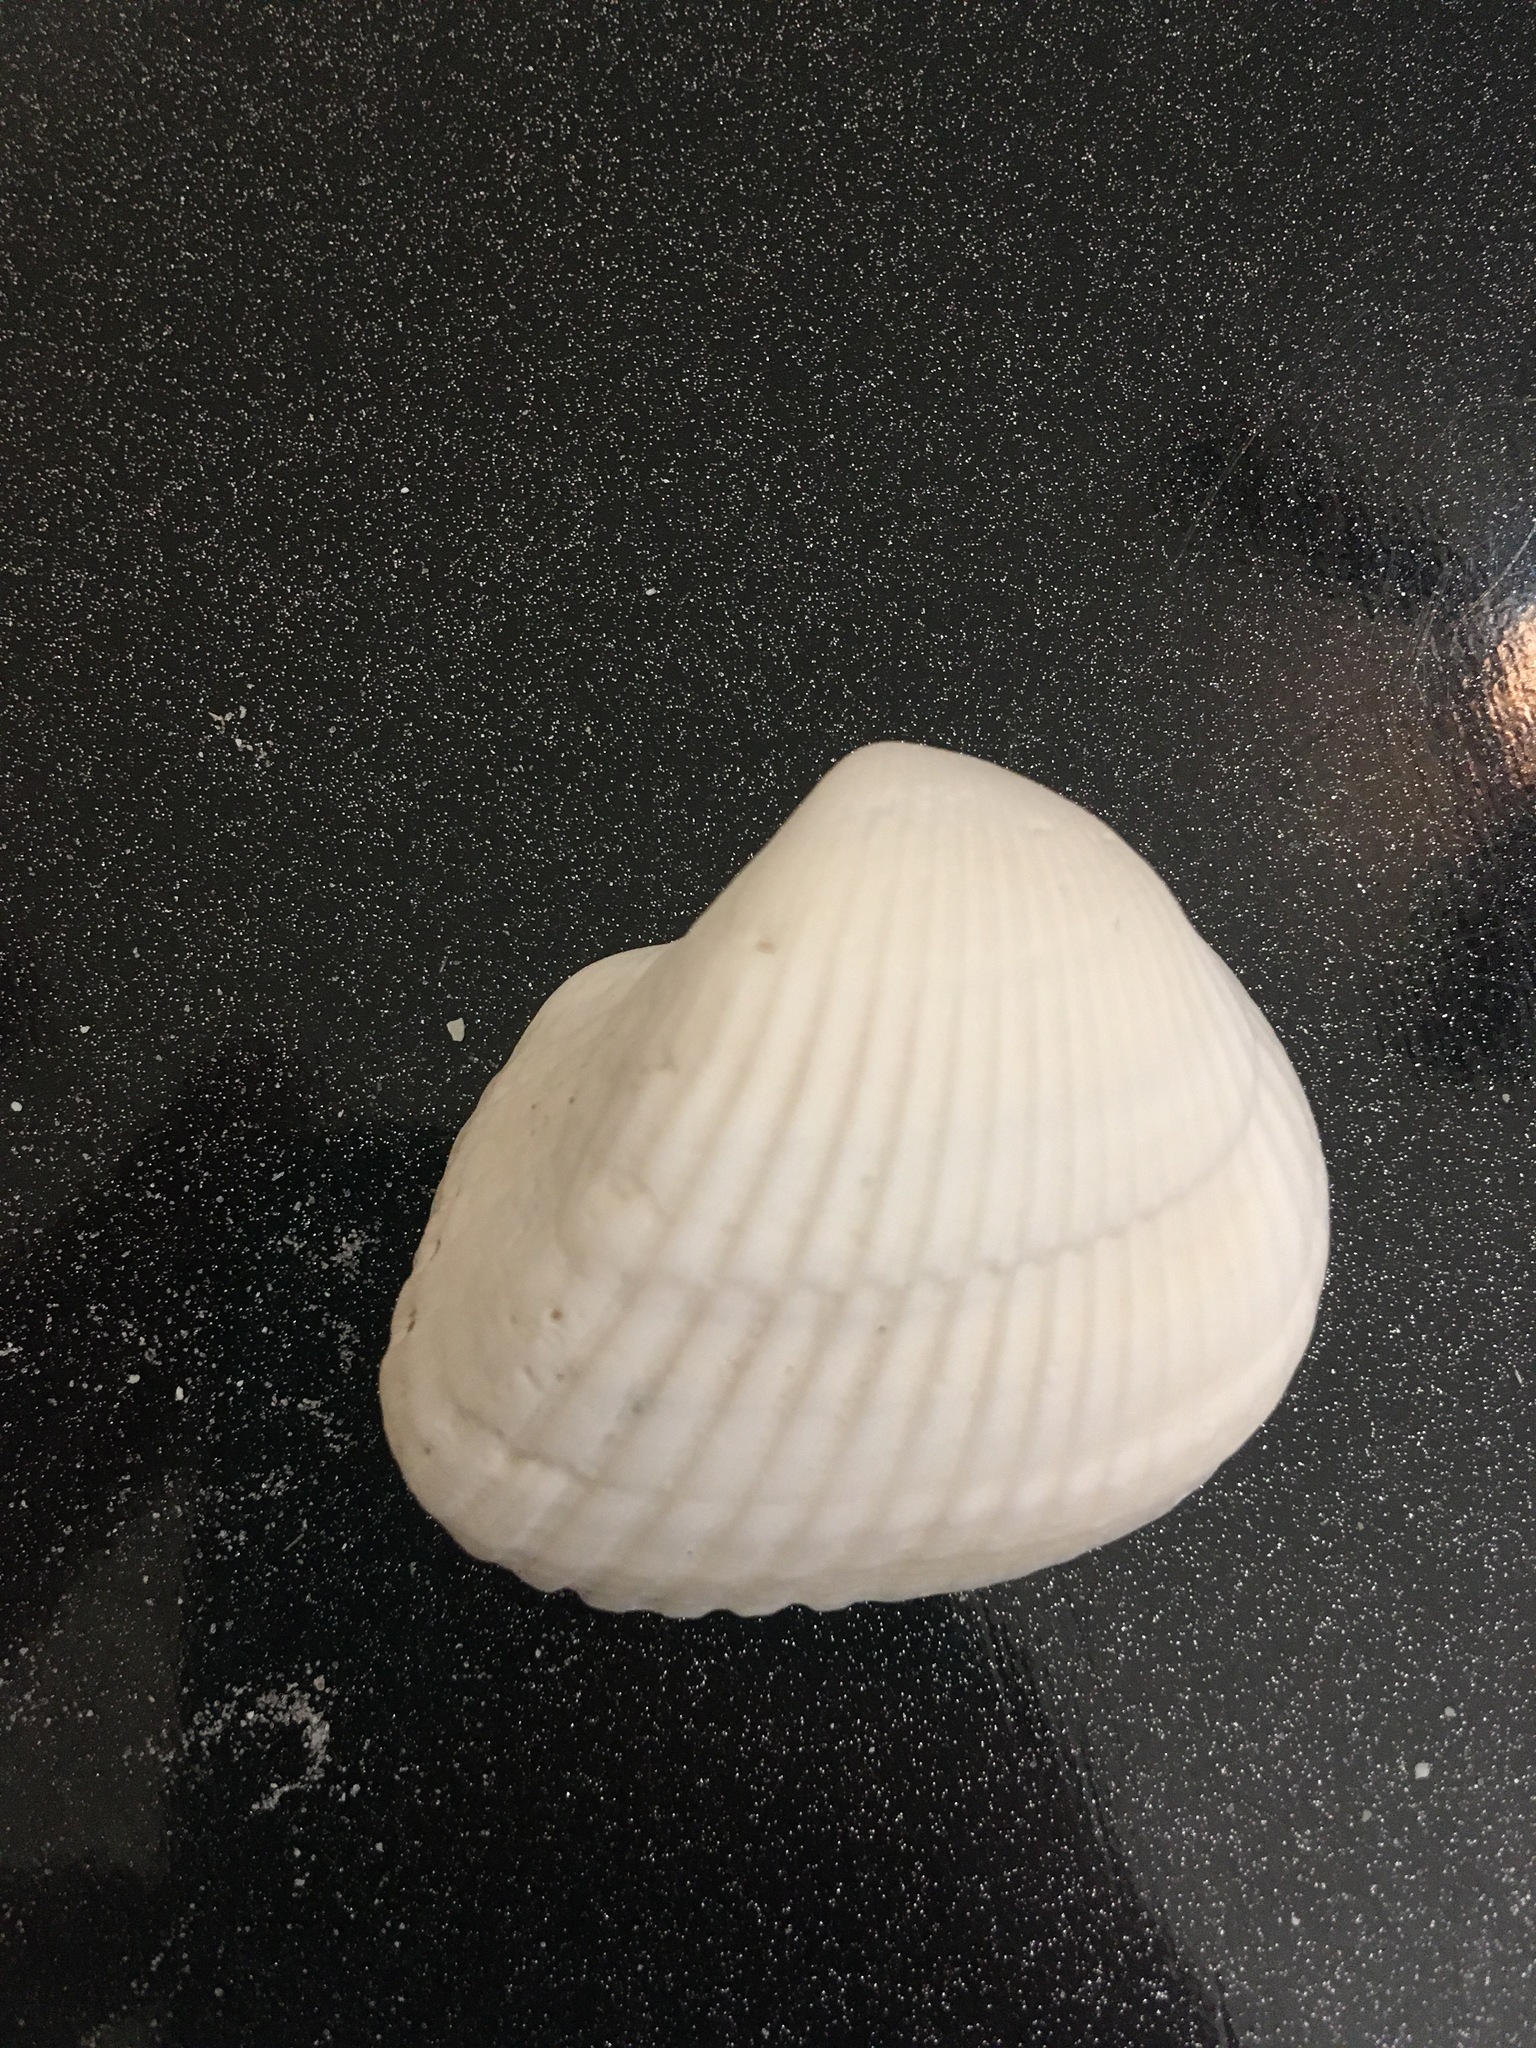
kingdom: Animalia
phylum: Mollusca
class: Bivalvia
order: Arcida
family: Noetiidae
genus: Noetia
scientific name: Noetia ponderosa
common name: Ponderous ark
